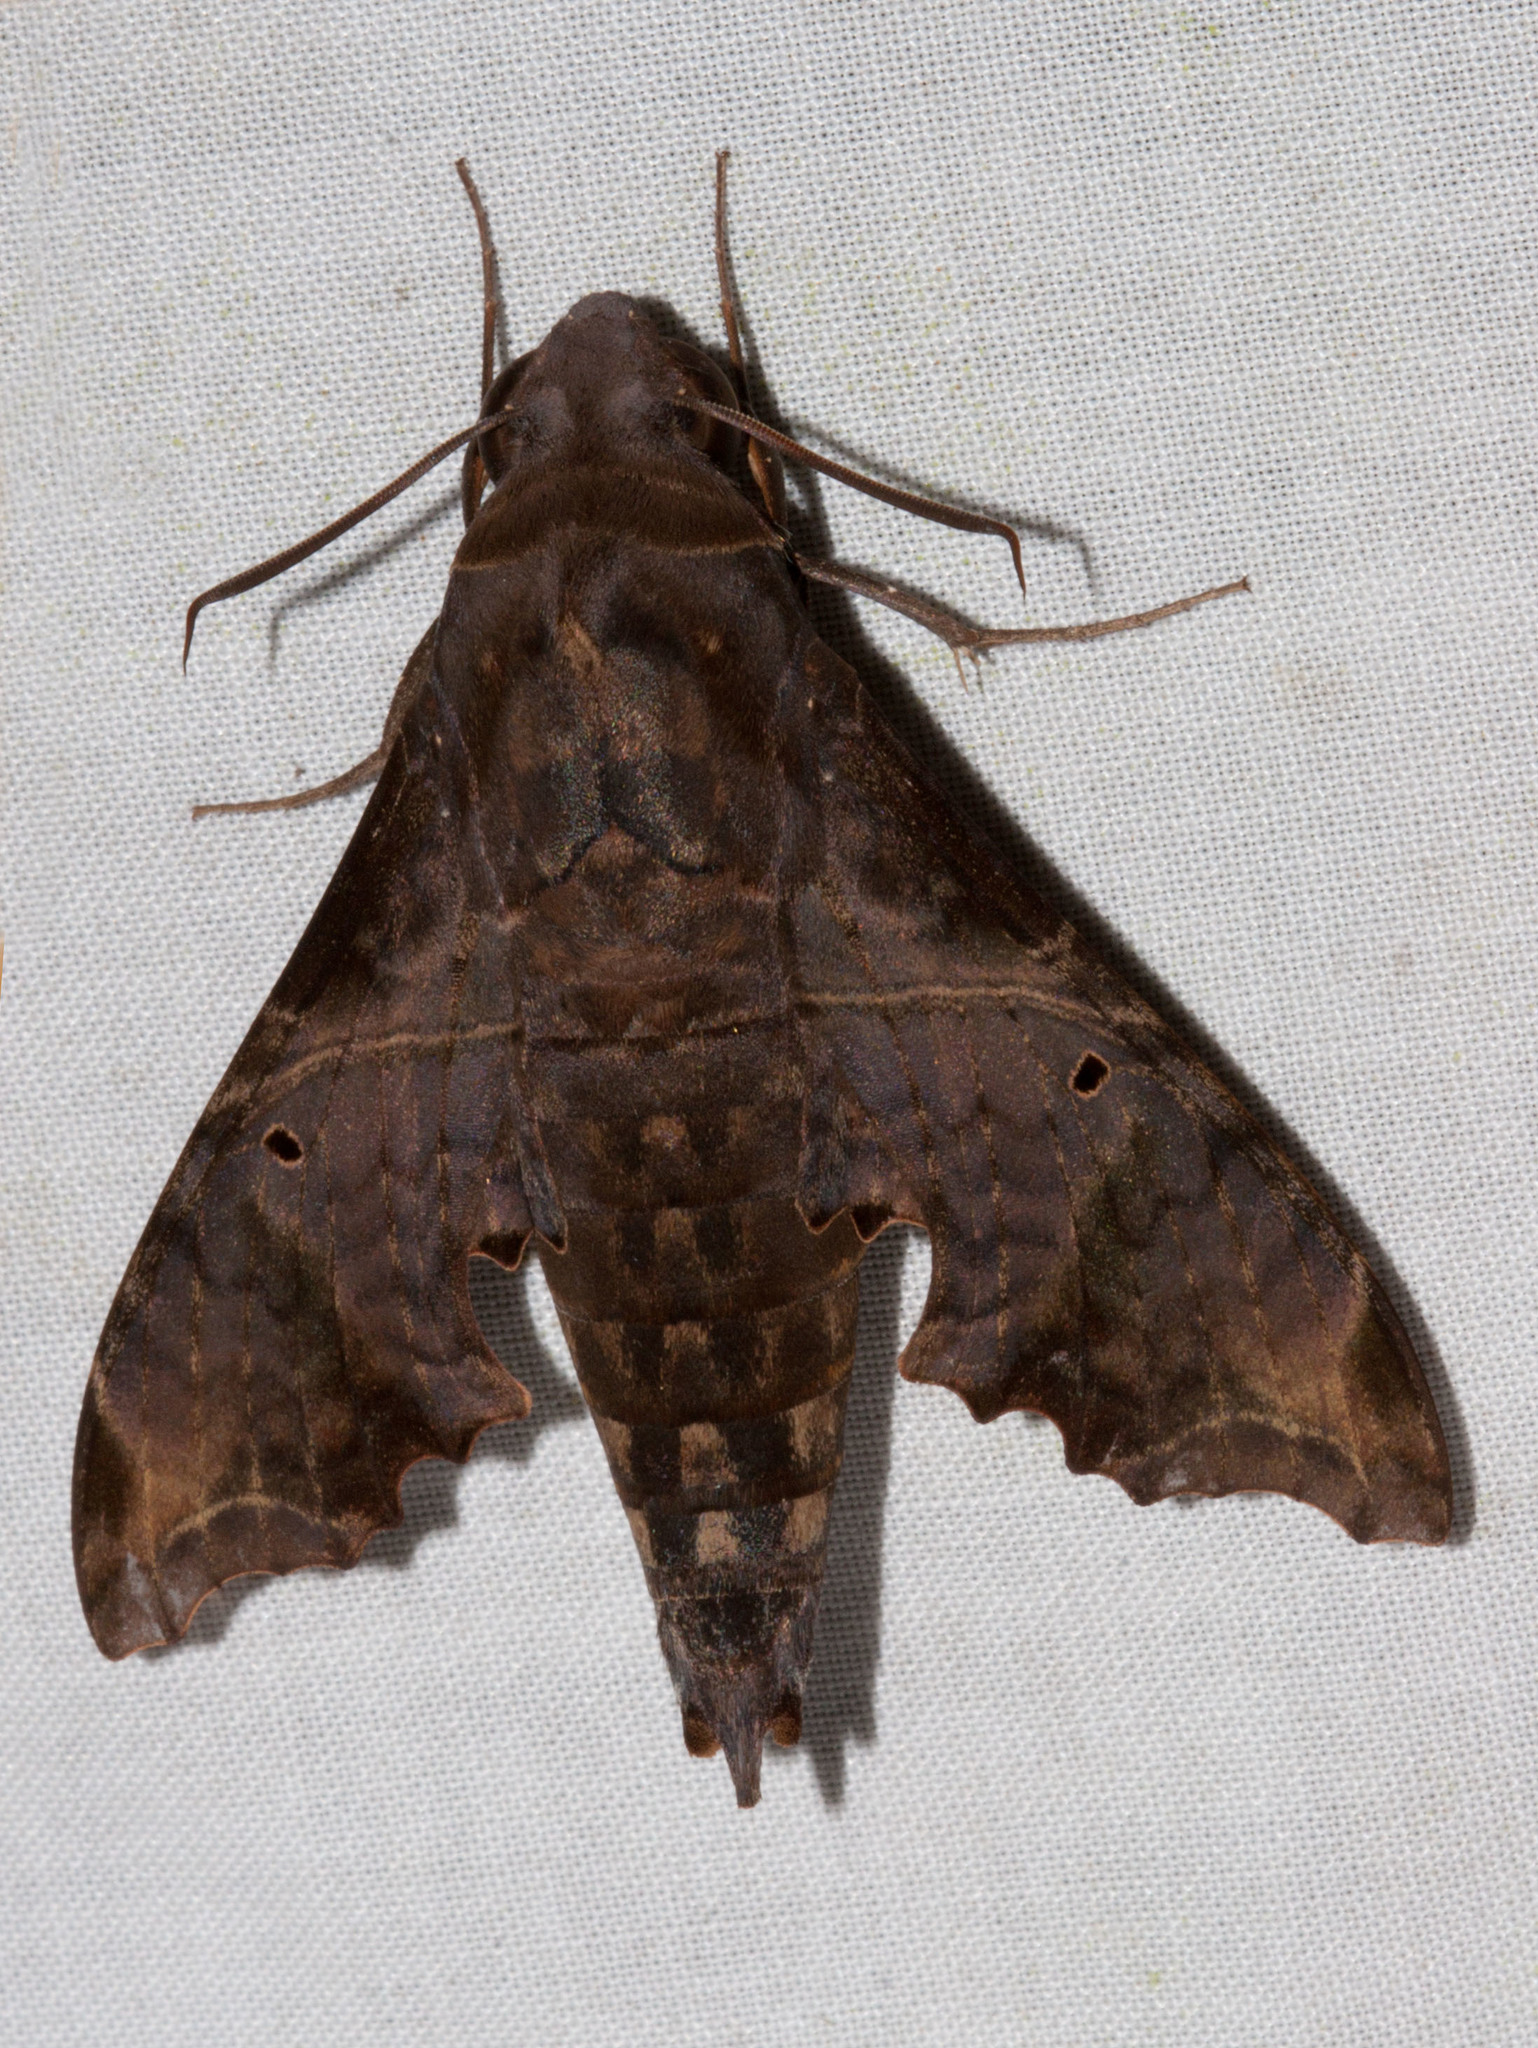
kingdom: Animalia
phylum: Arthropoda
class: Insecta
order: Lepidoptera
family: Sphingidae
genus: Enyo
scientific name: Enyo lugubris
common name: Mournful sphinx
